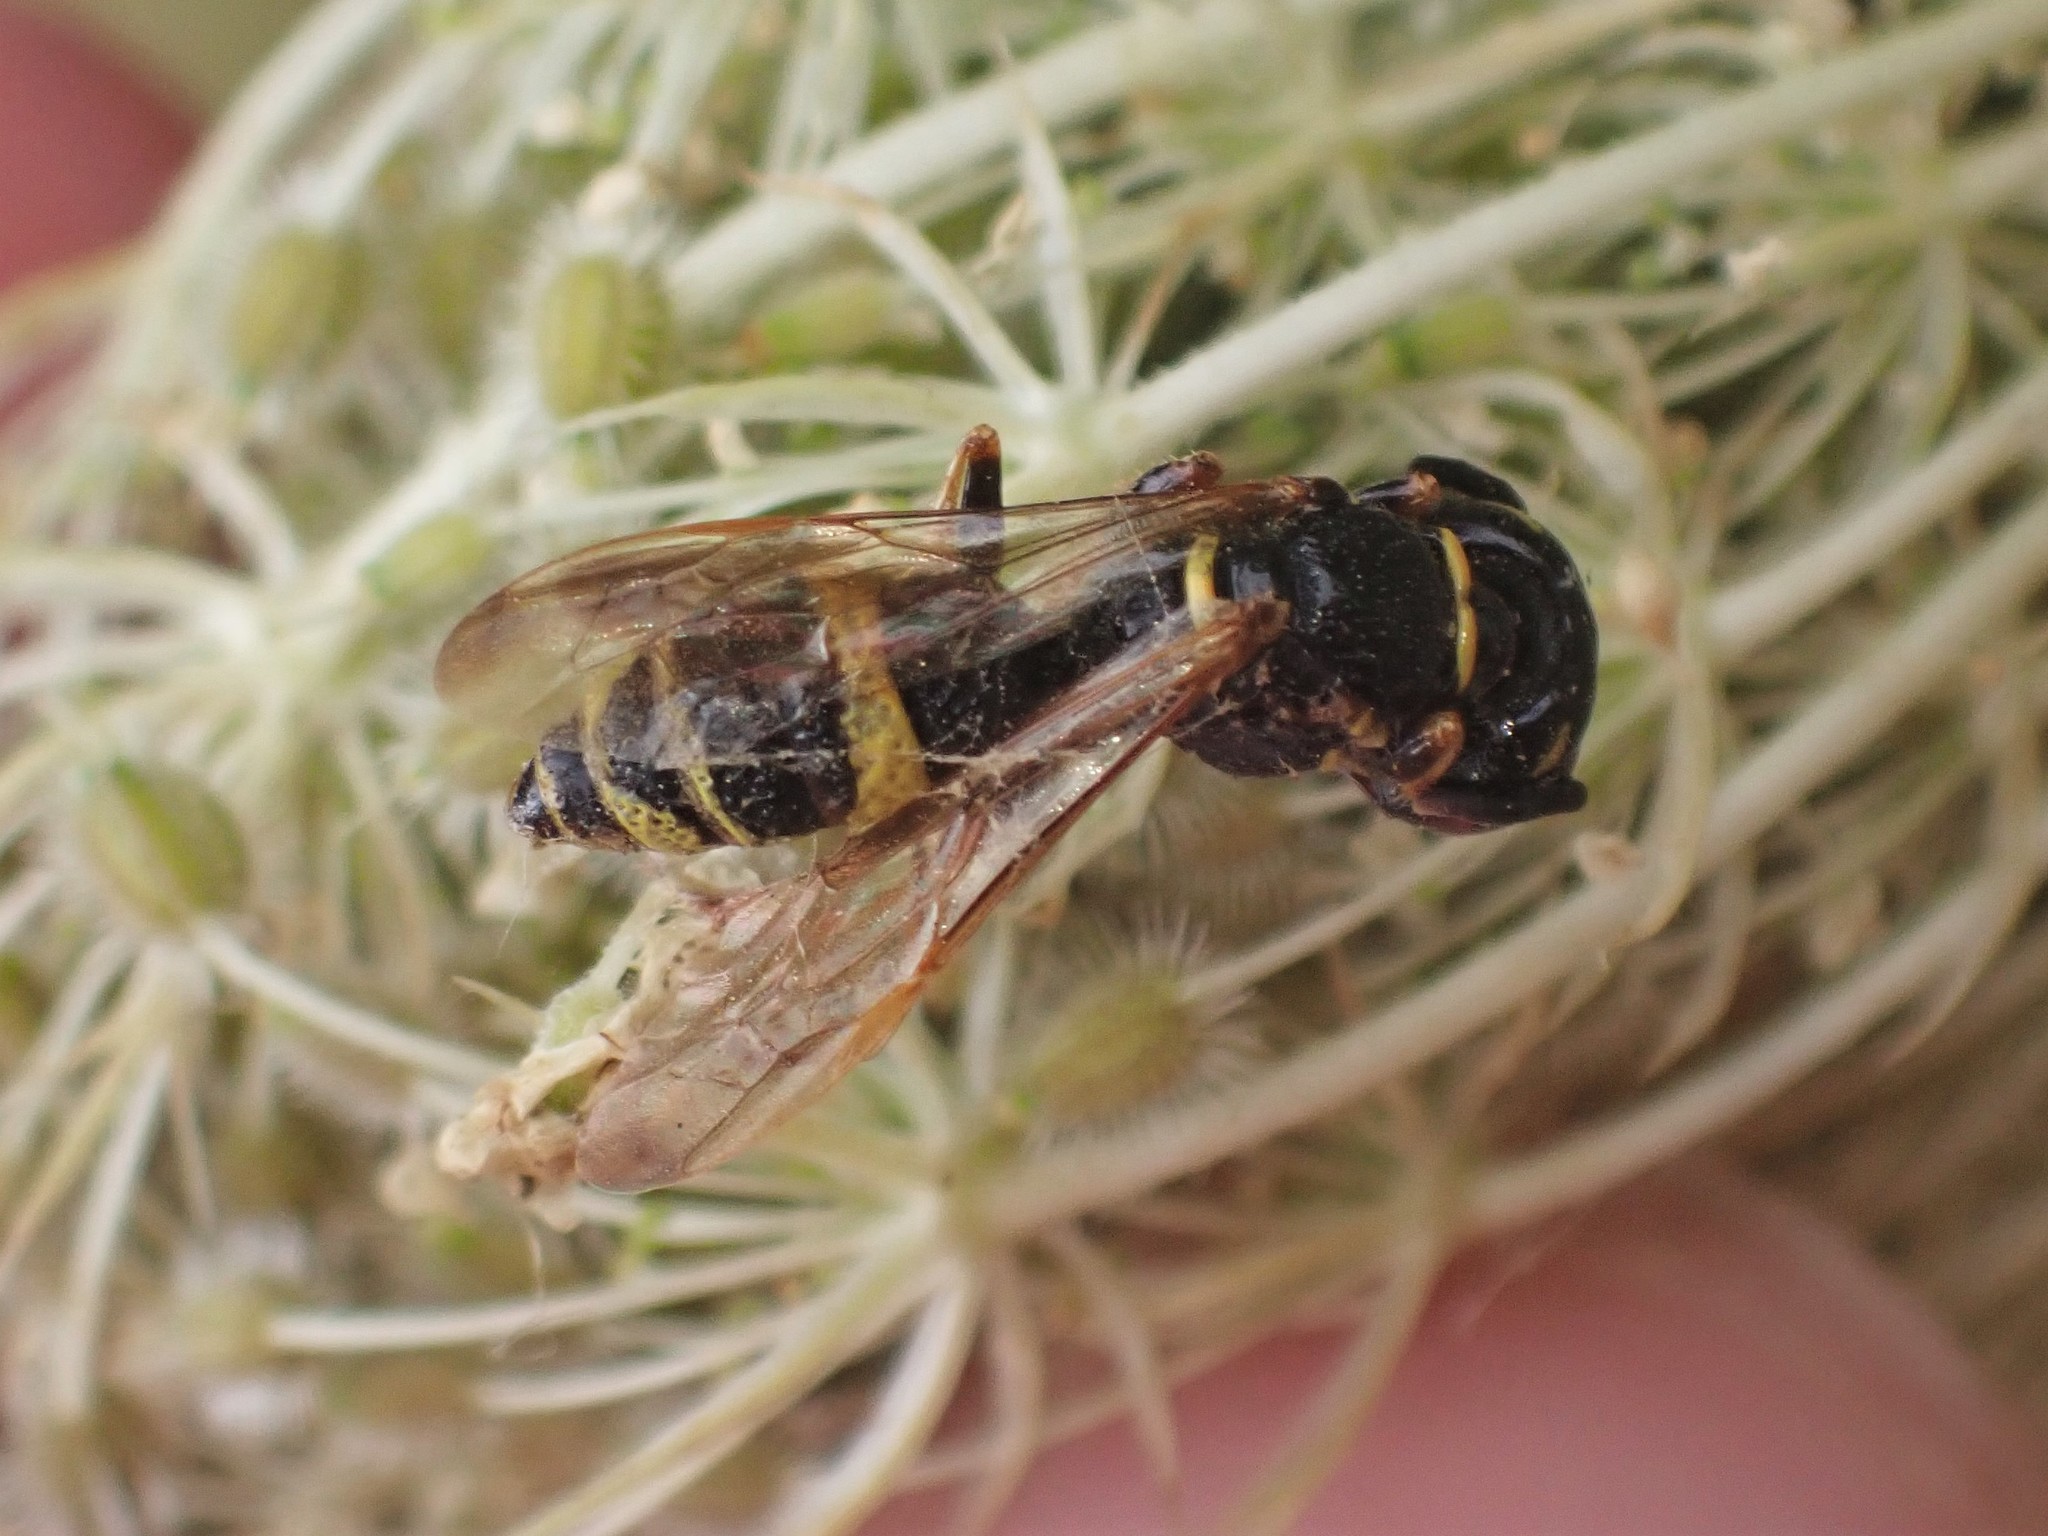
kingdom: Animalia
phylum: Arthropoda
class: Insecta
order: Hymenoptera
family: Crabronidae
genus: Philanthus
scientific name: Philanthus gibbosus
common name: Humped beewolf
